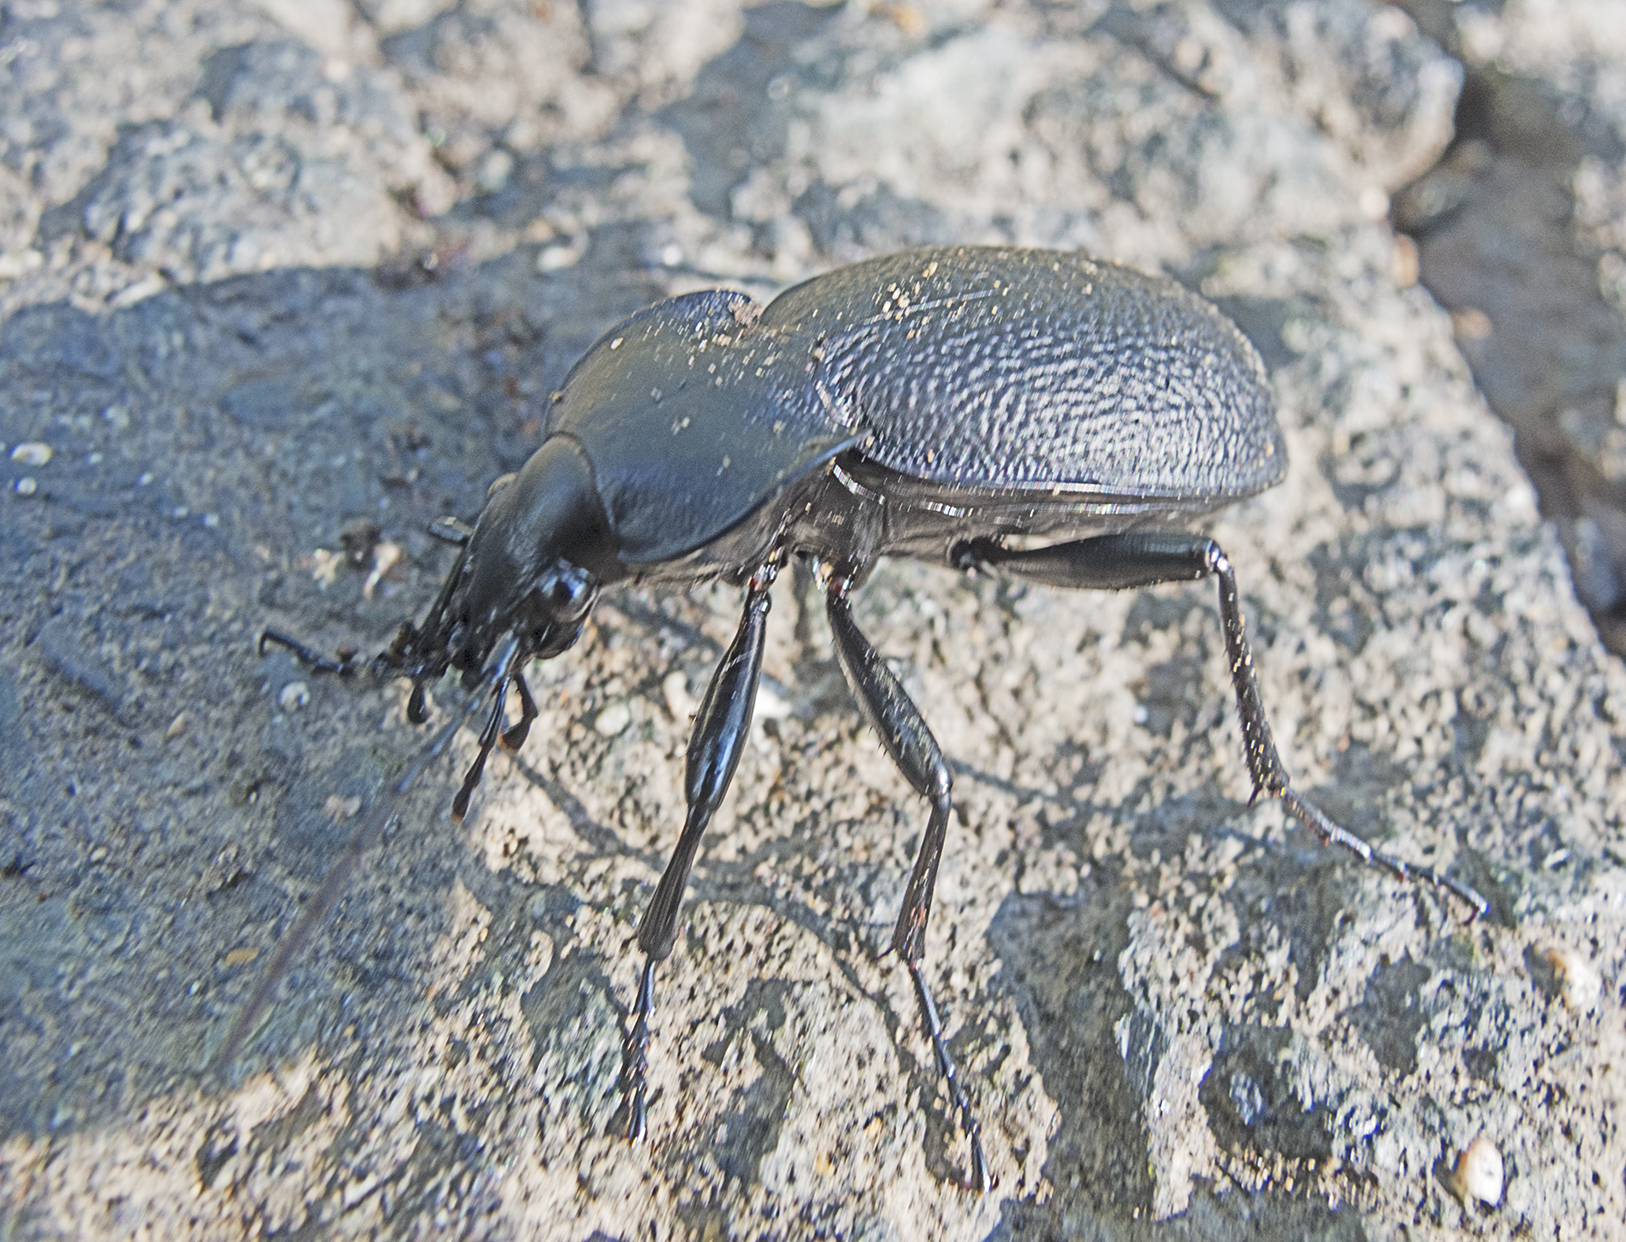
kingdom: Animalia
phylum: Arthropoda
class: Insecta
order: Coleoptera
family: Carabidae
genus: Carabus
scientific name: Carabus coriaceus
